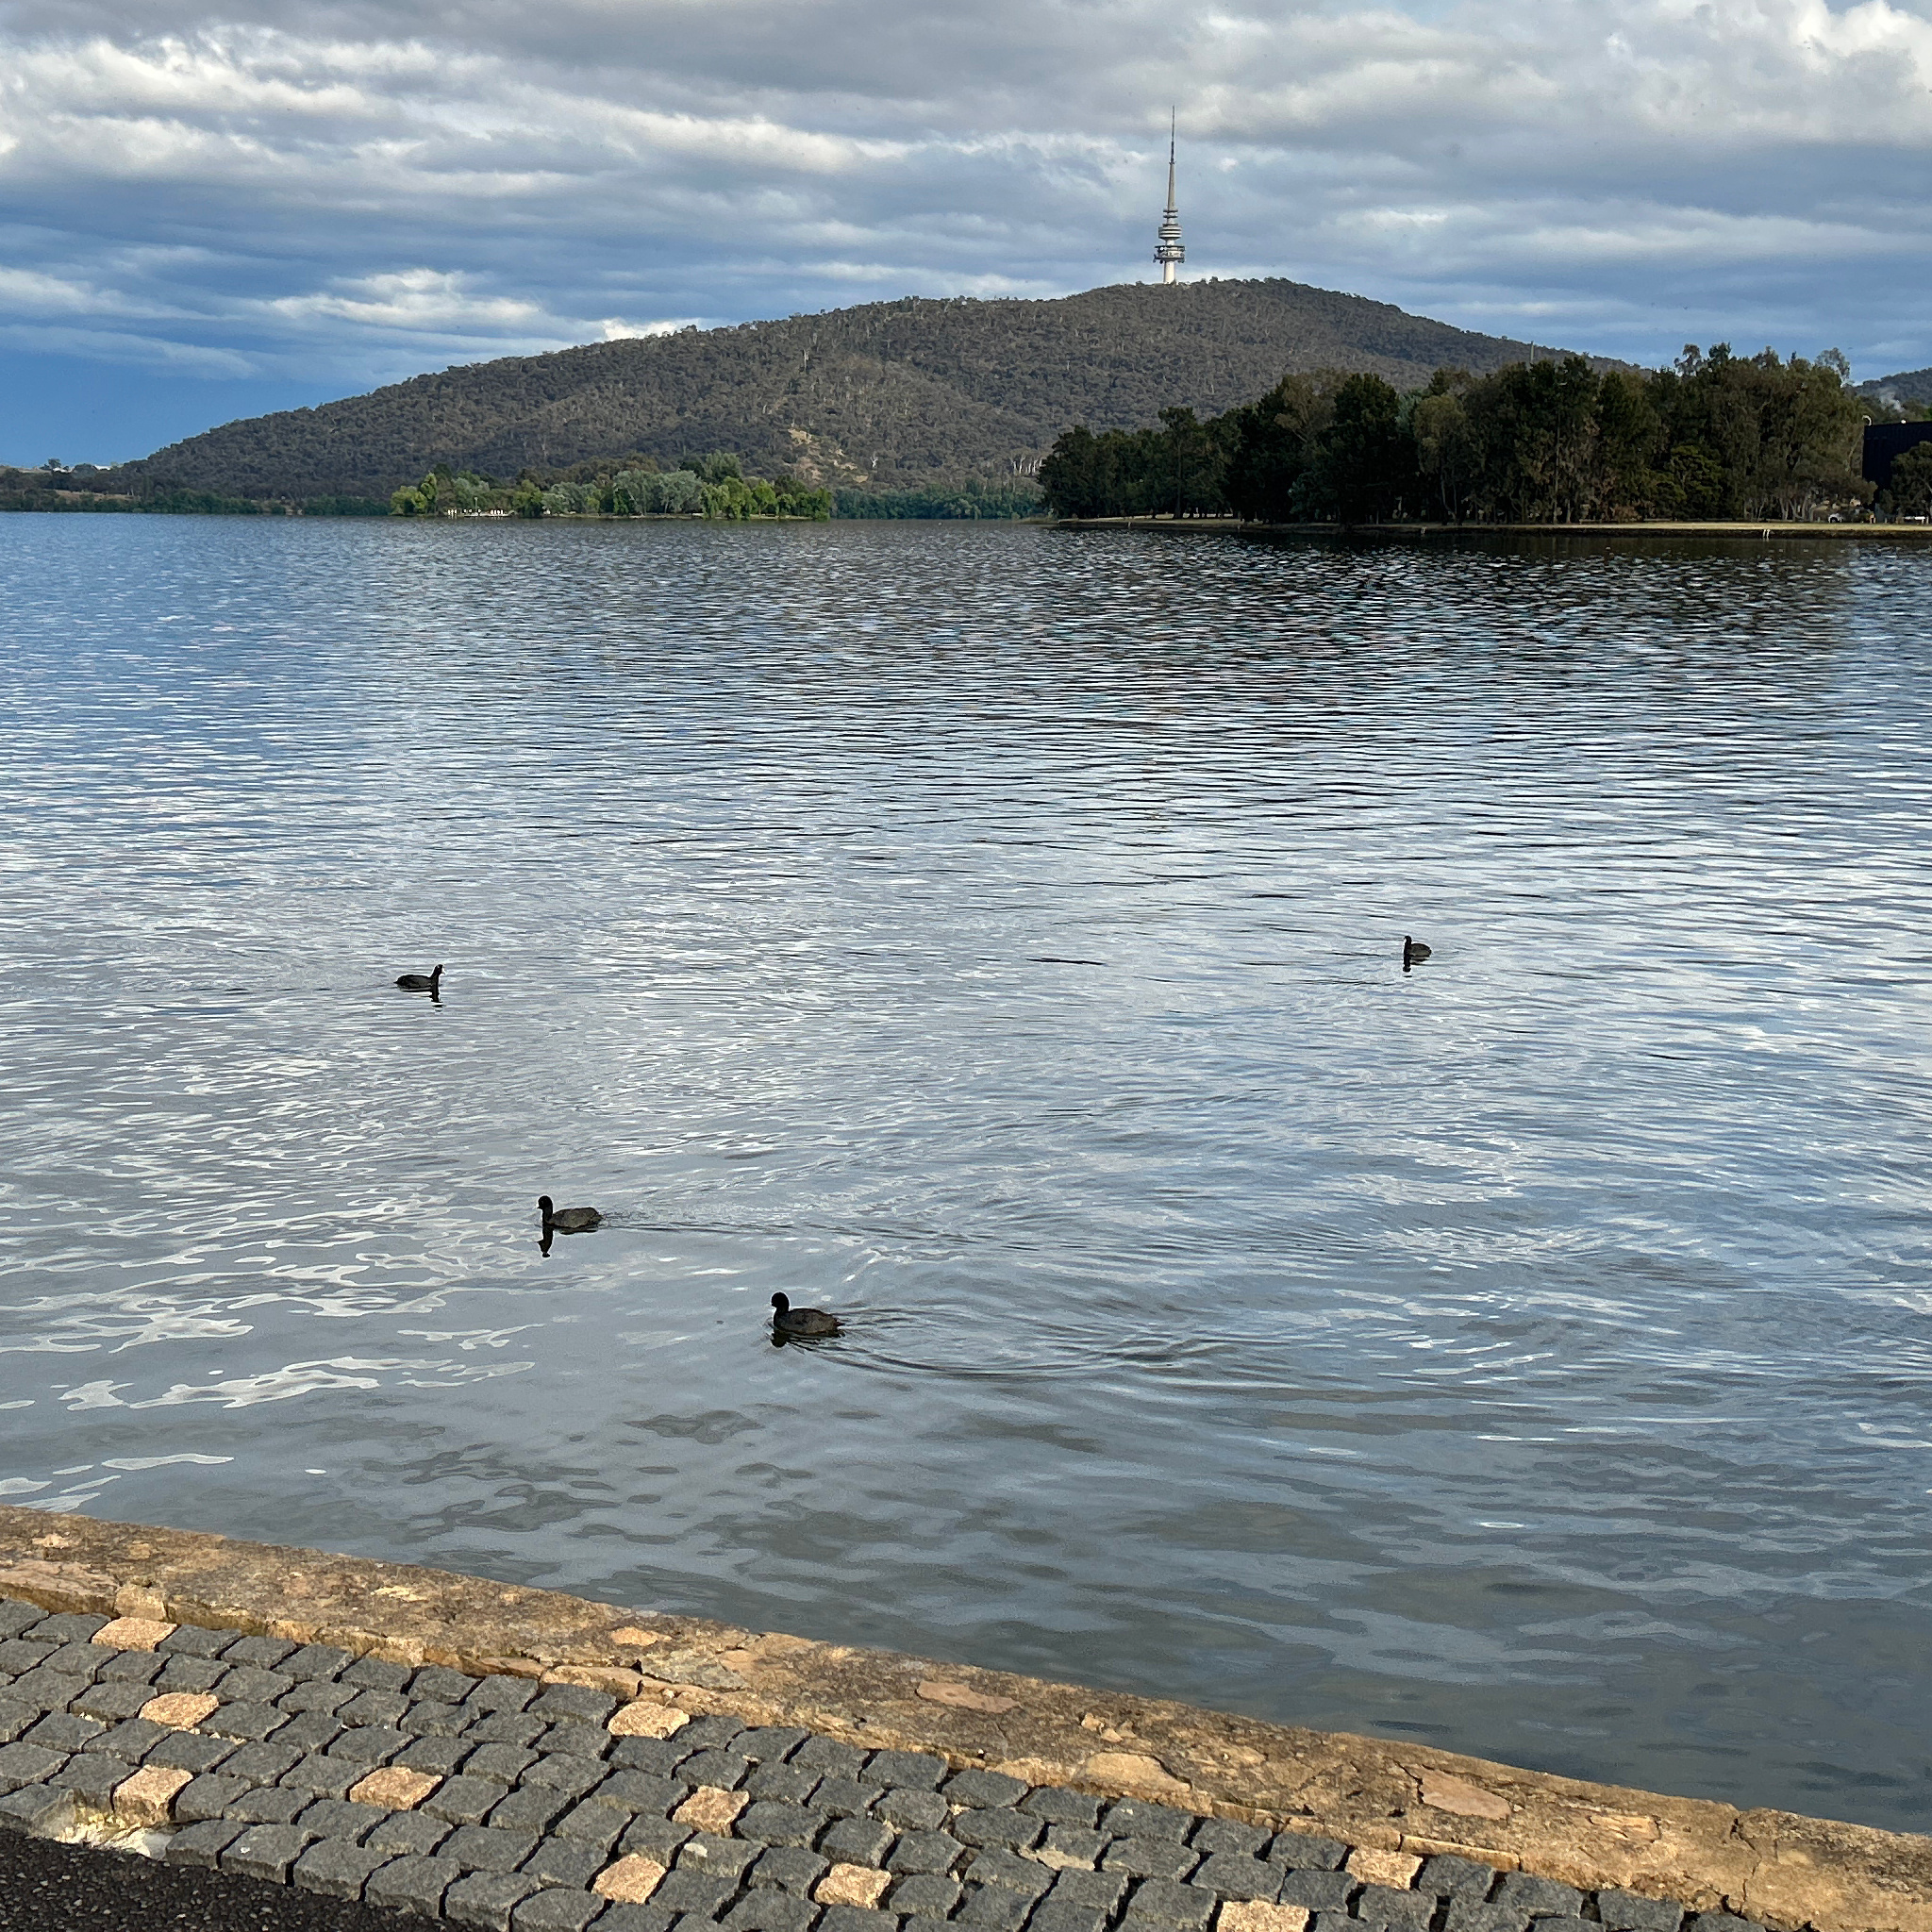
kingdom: Animalia
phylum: Chordata
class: Aves
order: Gruiformes
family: Rallidae
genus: Fulica
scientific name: Fulica atra
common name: Eurasian coot
